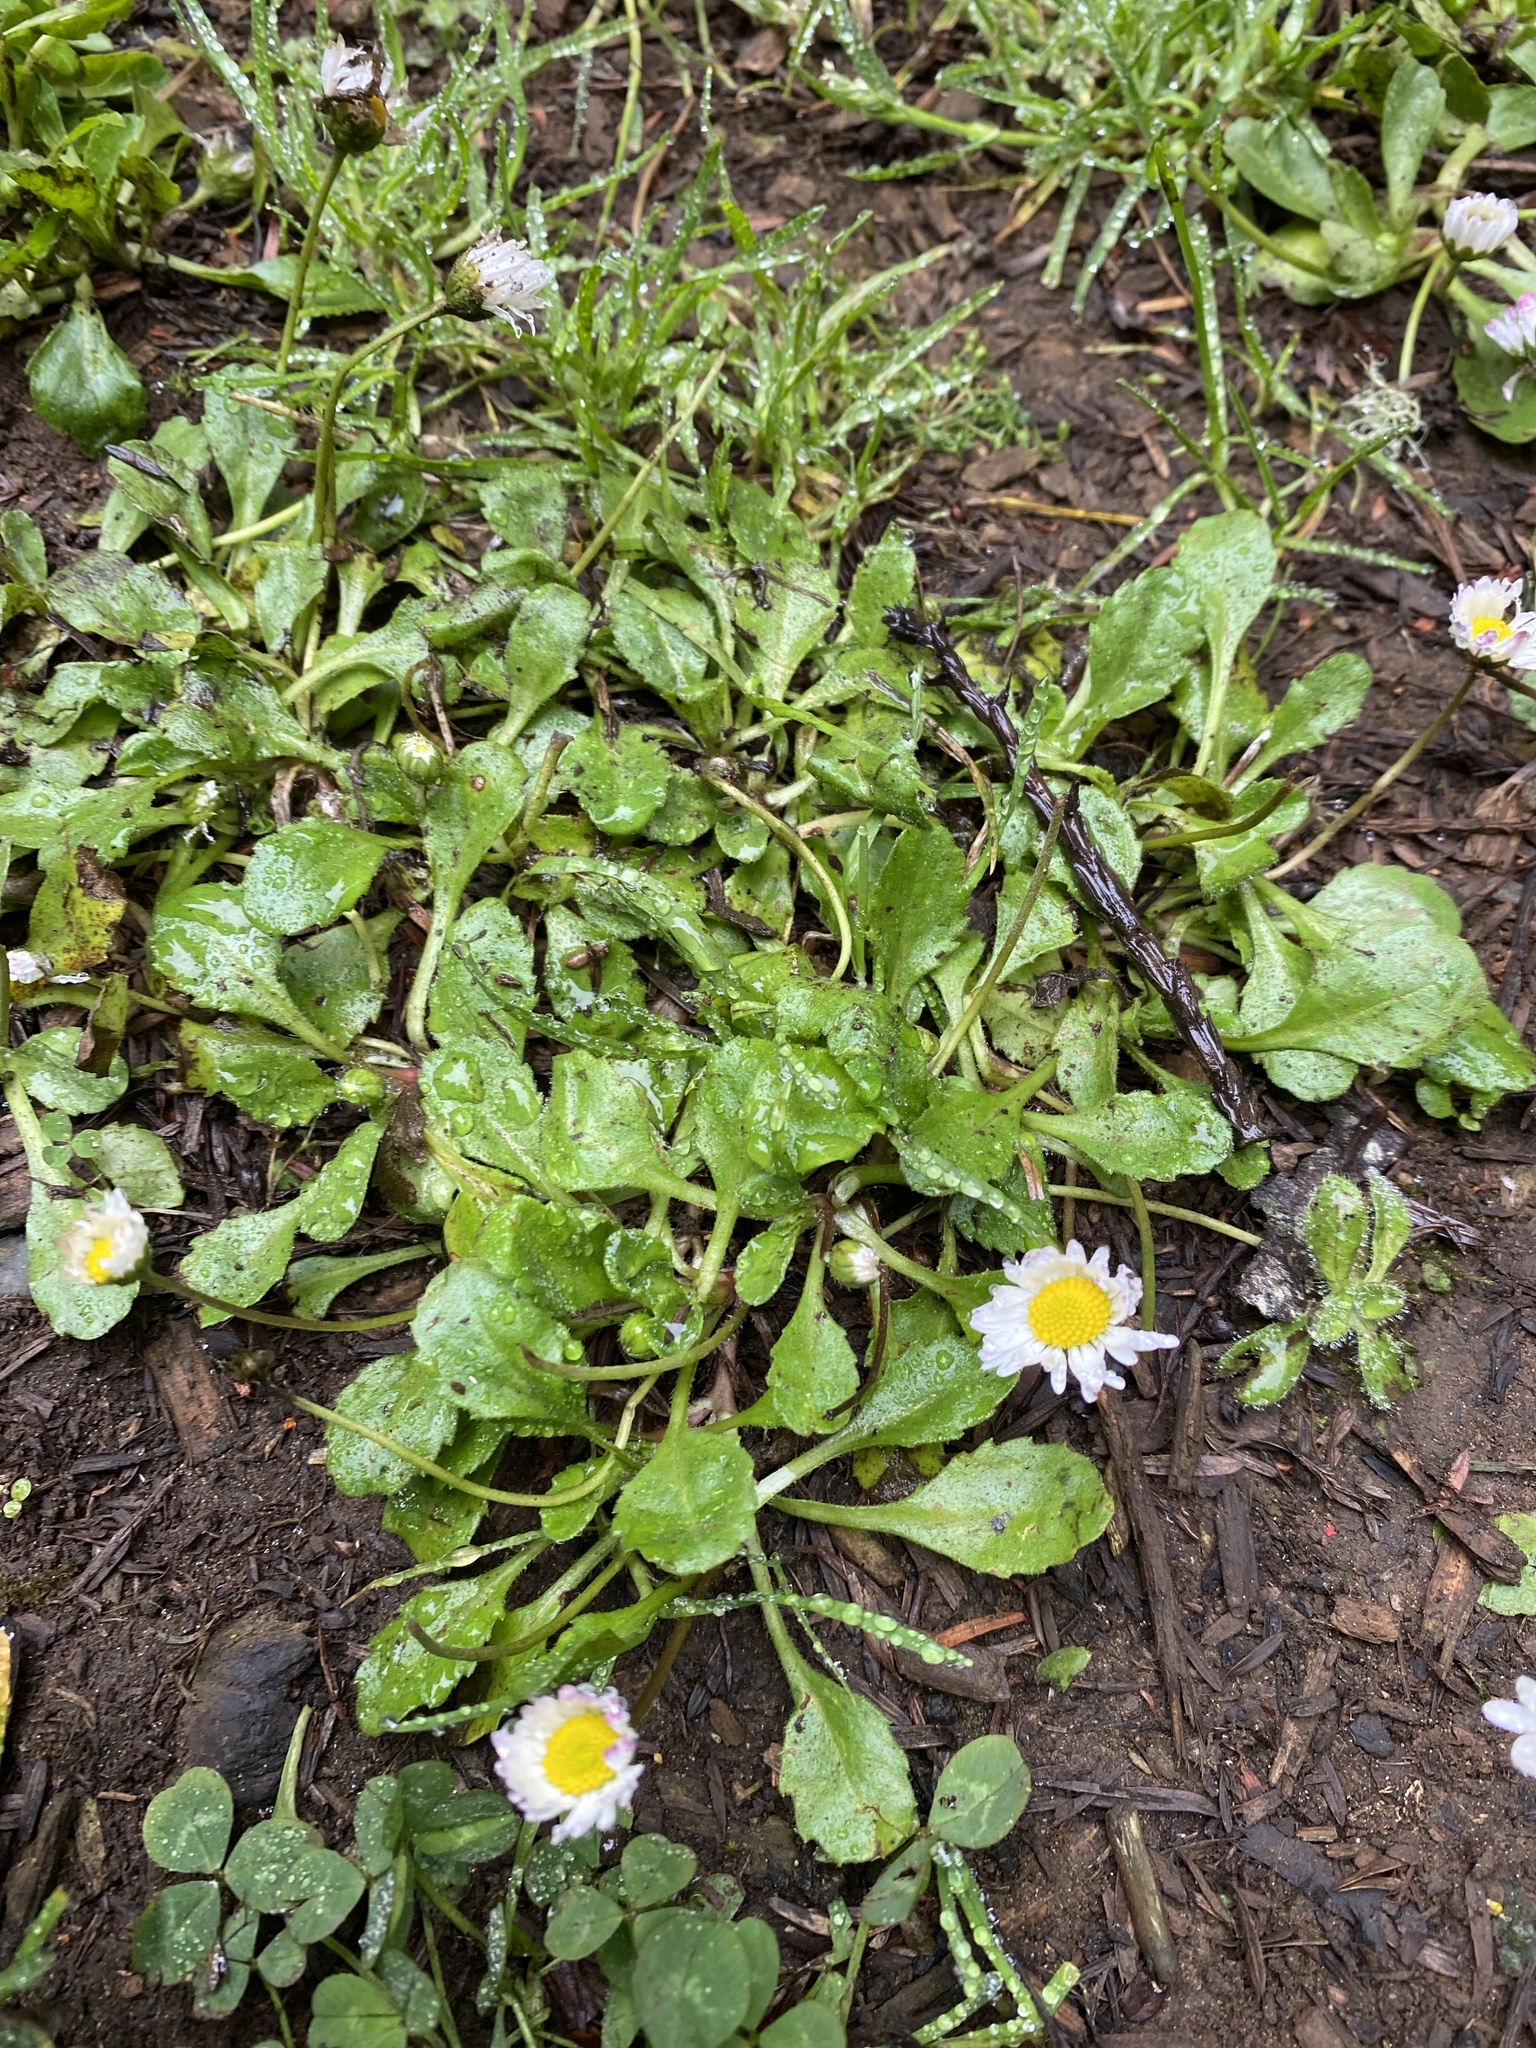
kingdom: Plantae
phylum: Tracheophyta
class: Magnoliopsida
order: Asterales
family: Asteraceae
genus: Bellis
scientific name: Bellis perennis
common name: Lawndaisy
